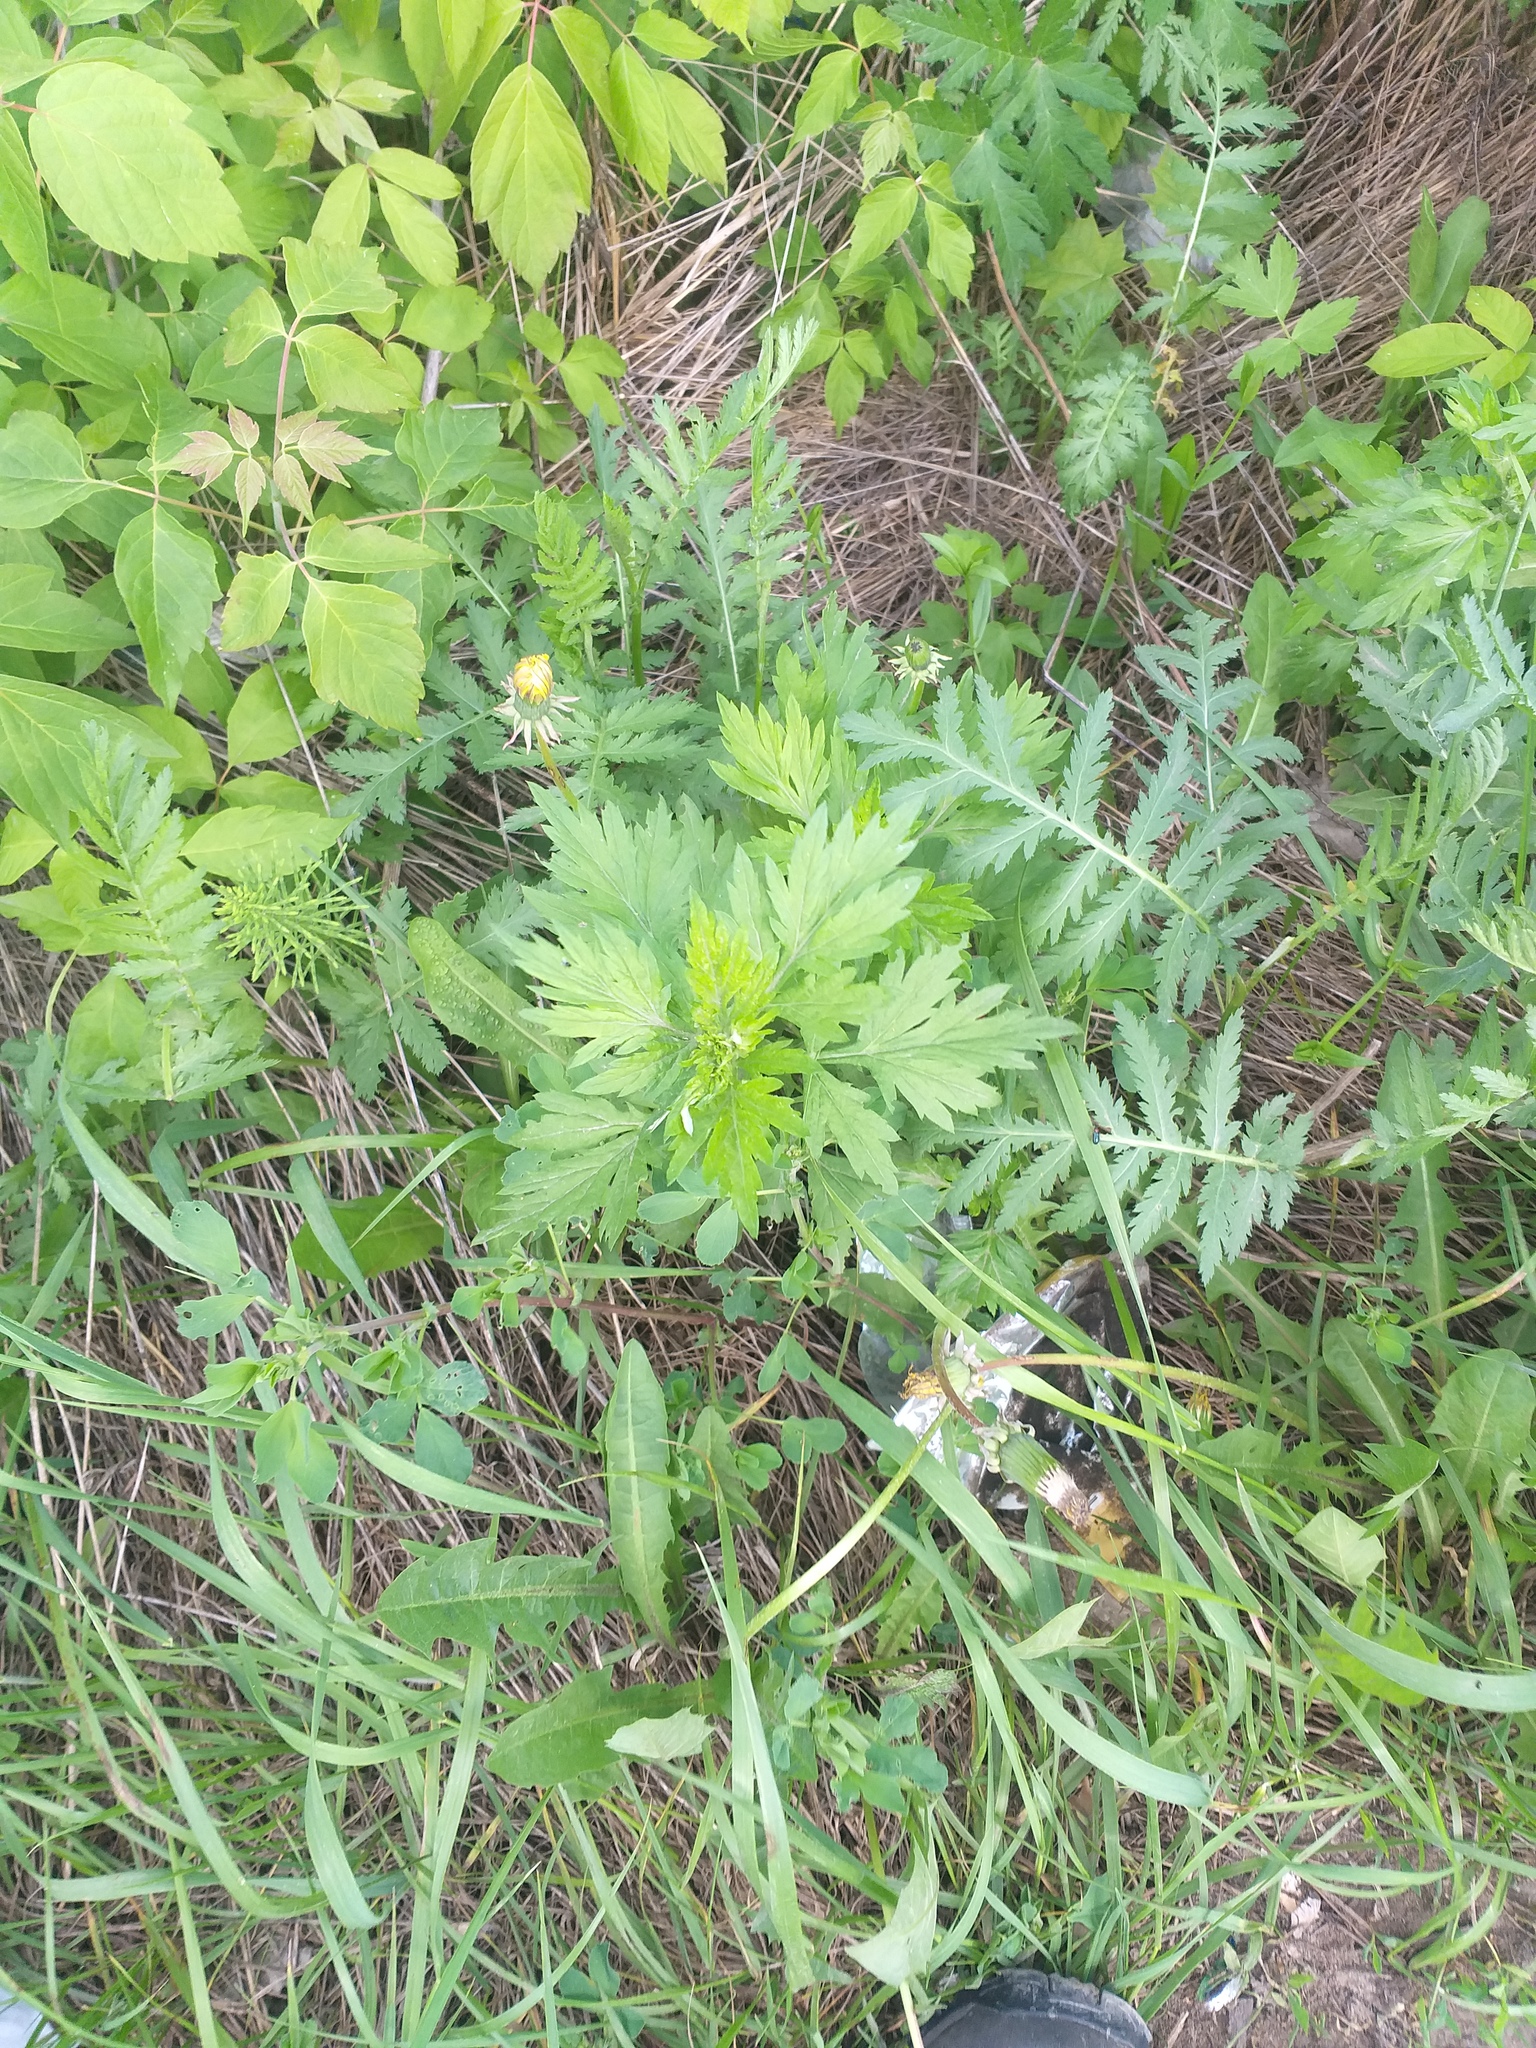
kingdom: Plantae
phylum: Tracheophyta
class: Magnoliopsida
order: Asterales
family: Asteraceae
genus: Artemisia
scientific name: Artemisia vulgaris
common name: Mugwort
